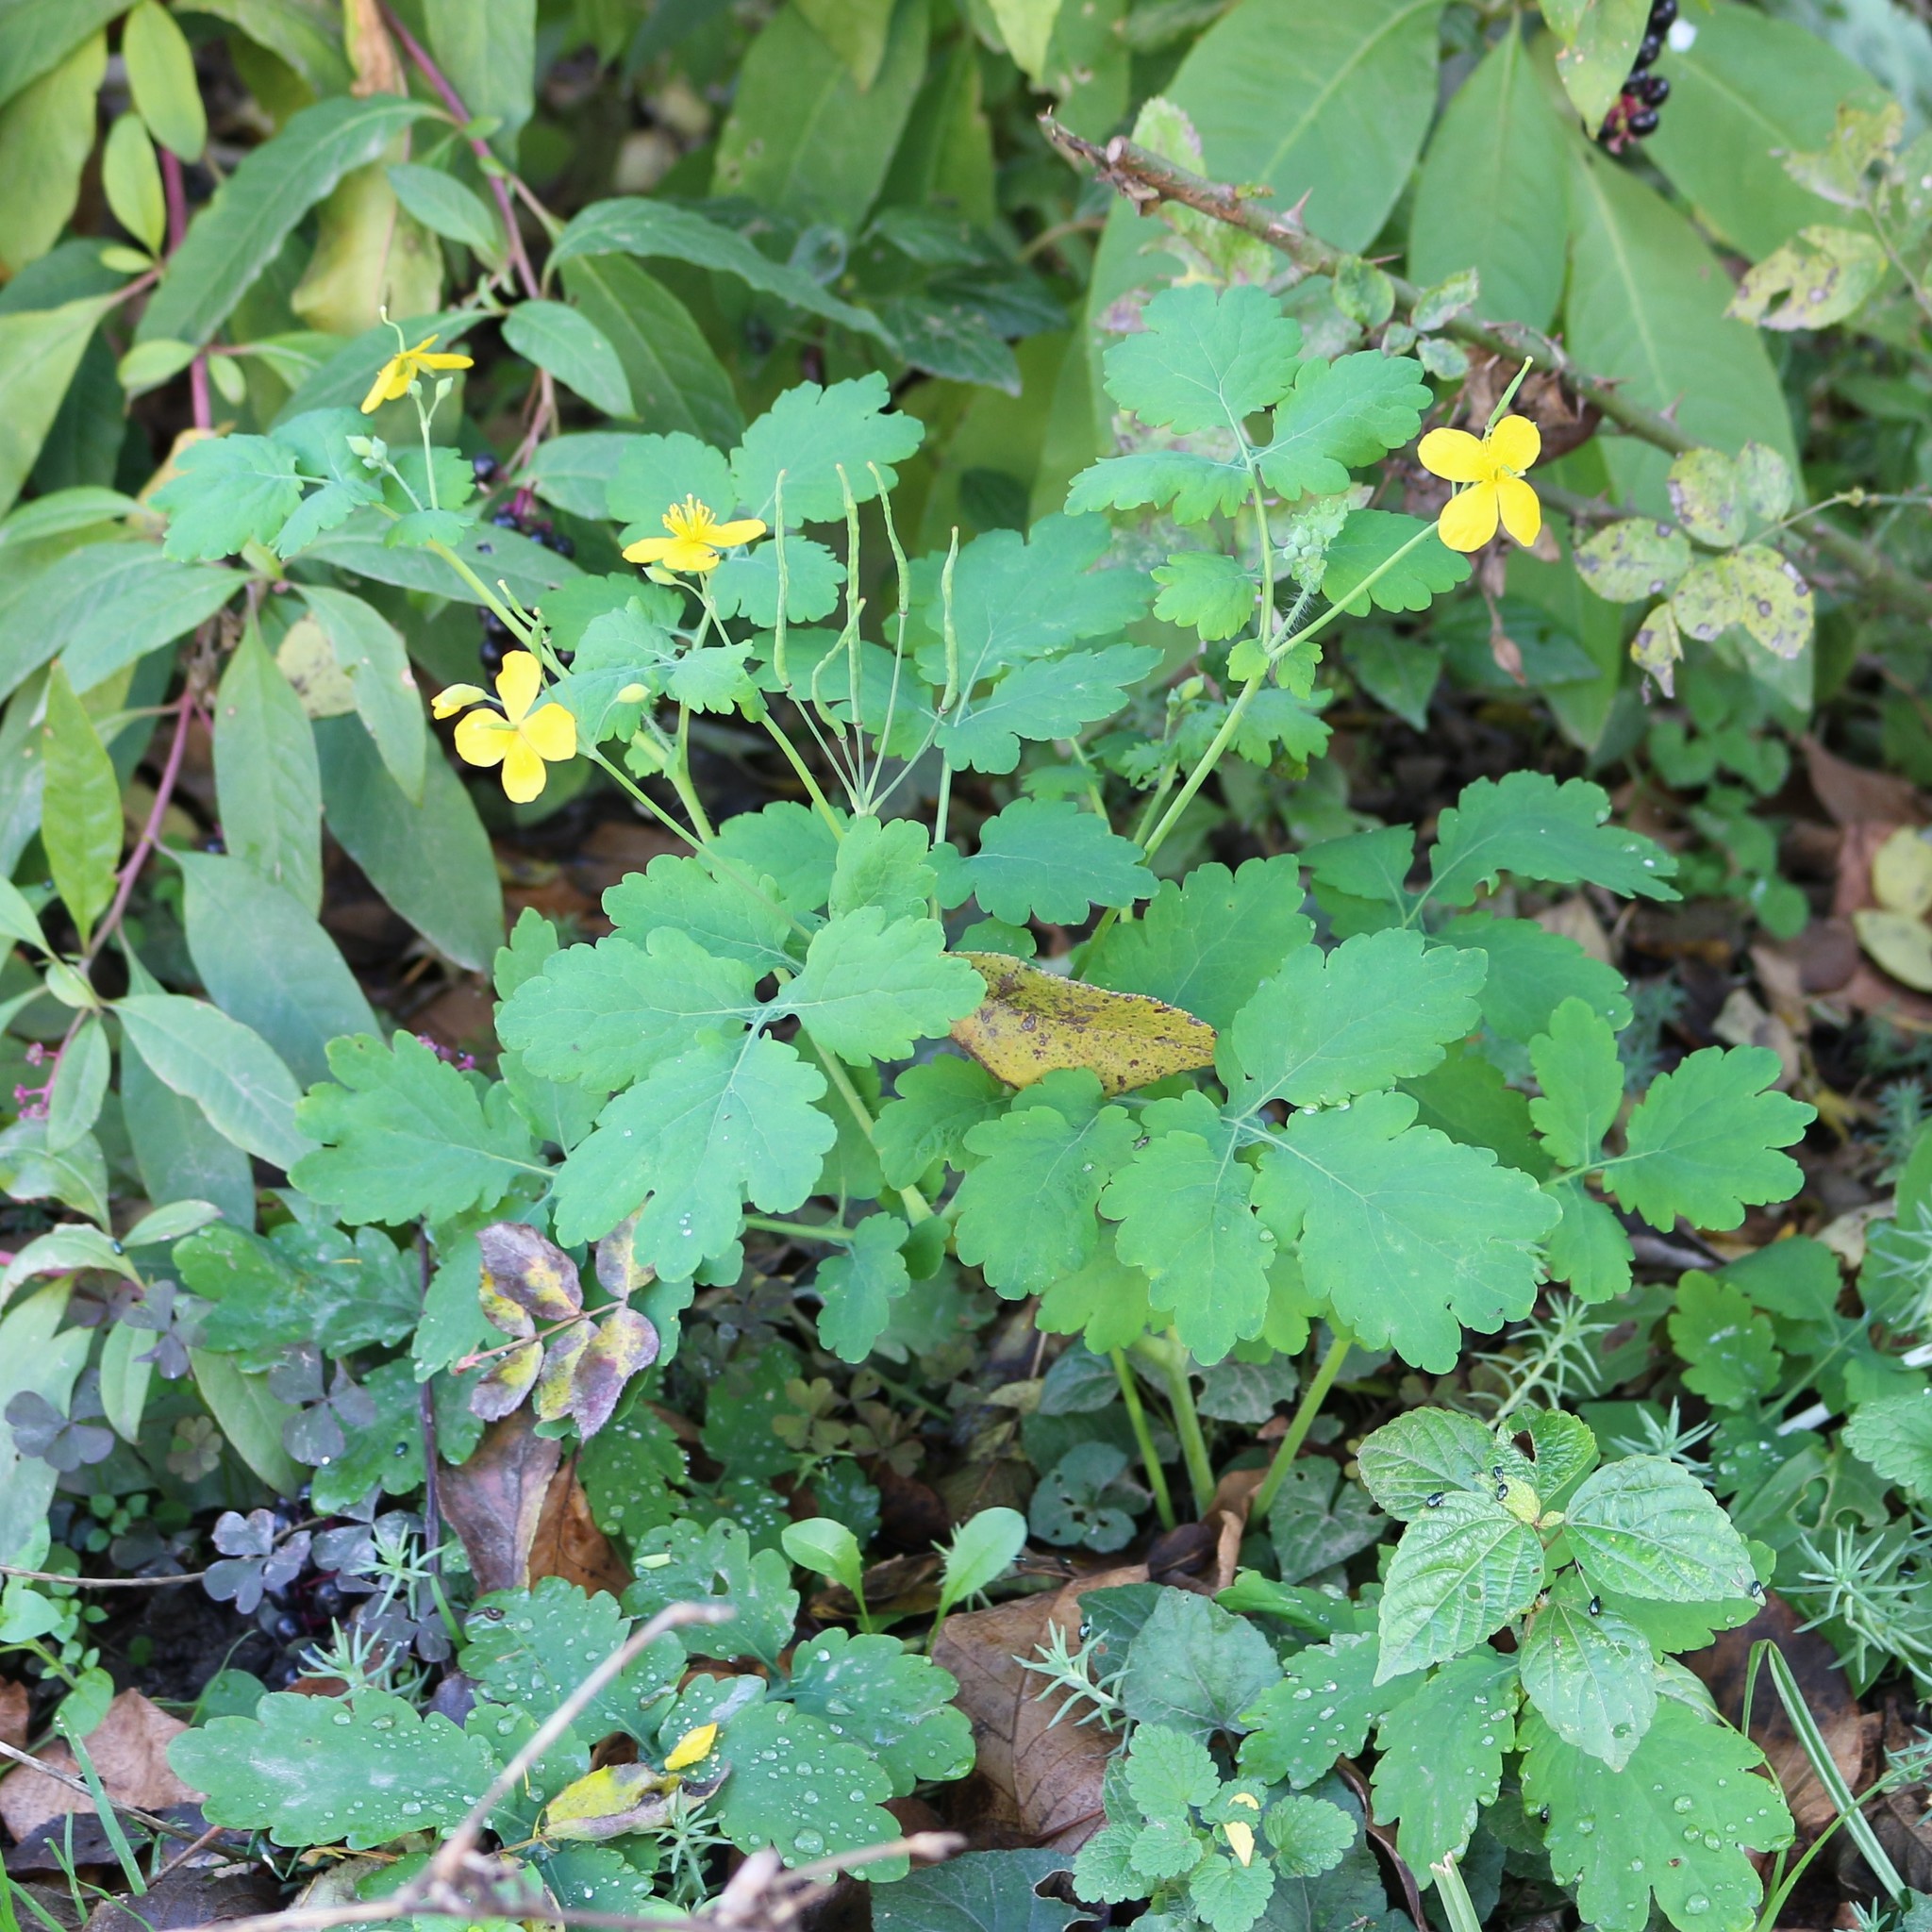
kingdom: Plantae
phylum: Tracheophyta
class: Magnoliopsida
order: Ranunculales
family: Papaveraceae
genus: Chelidonium
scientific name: Chelidonium majus
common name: Greater celandine
